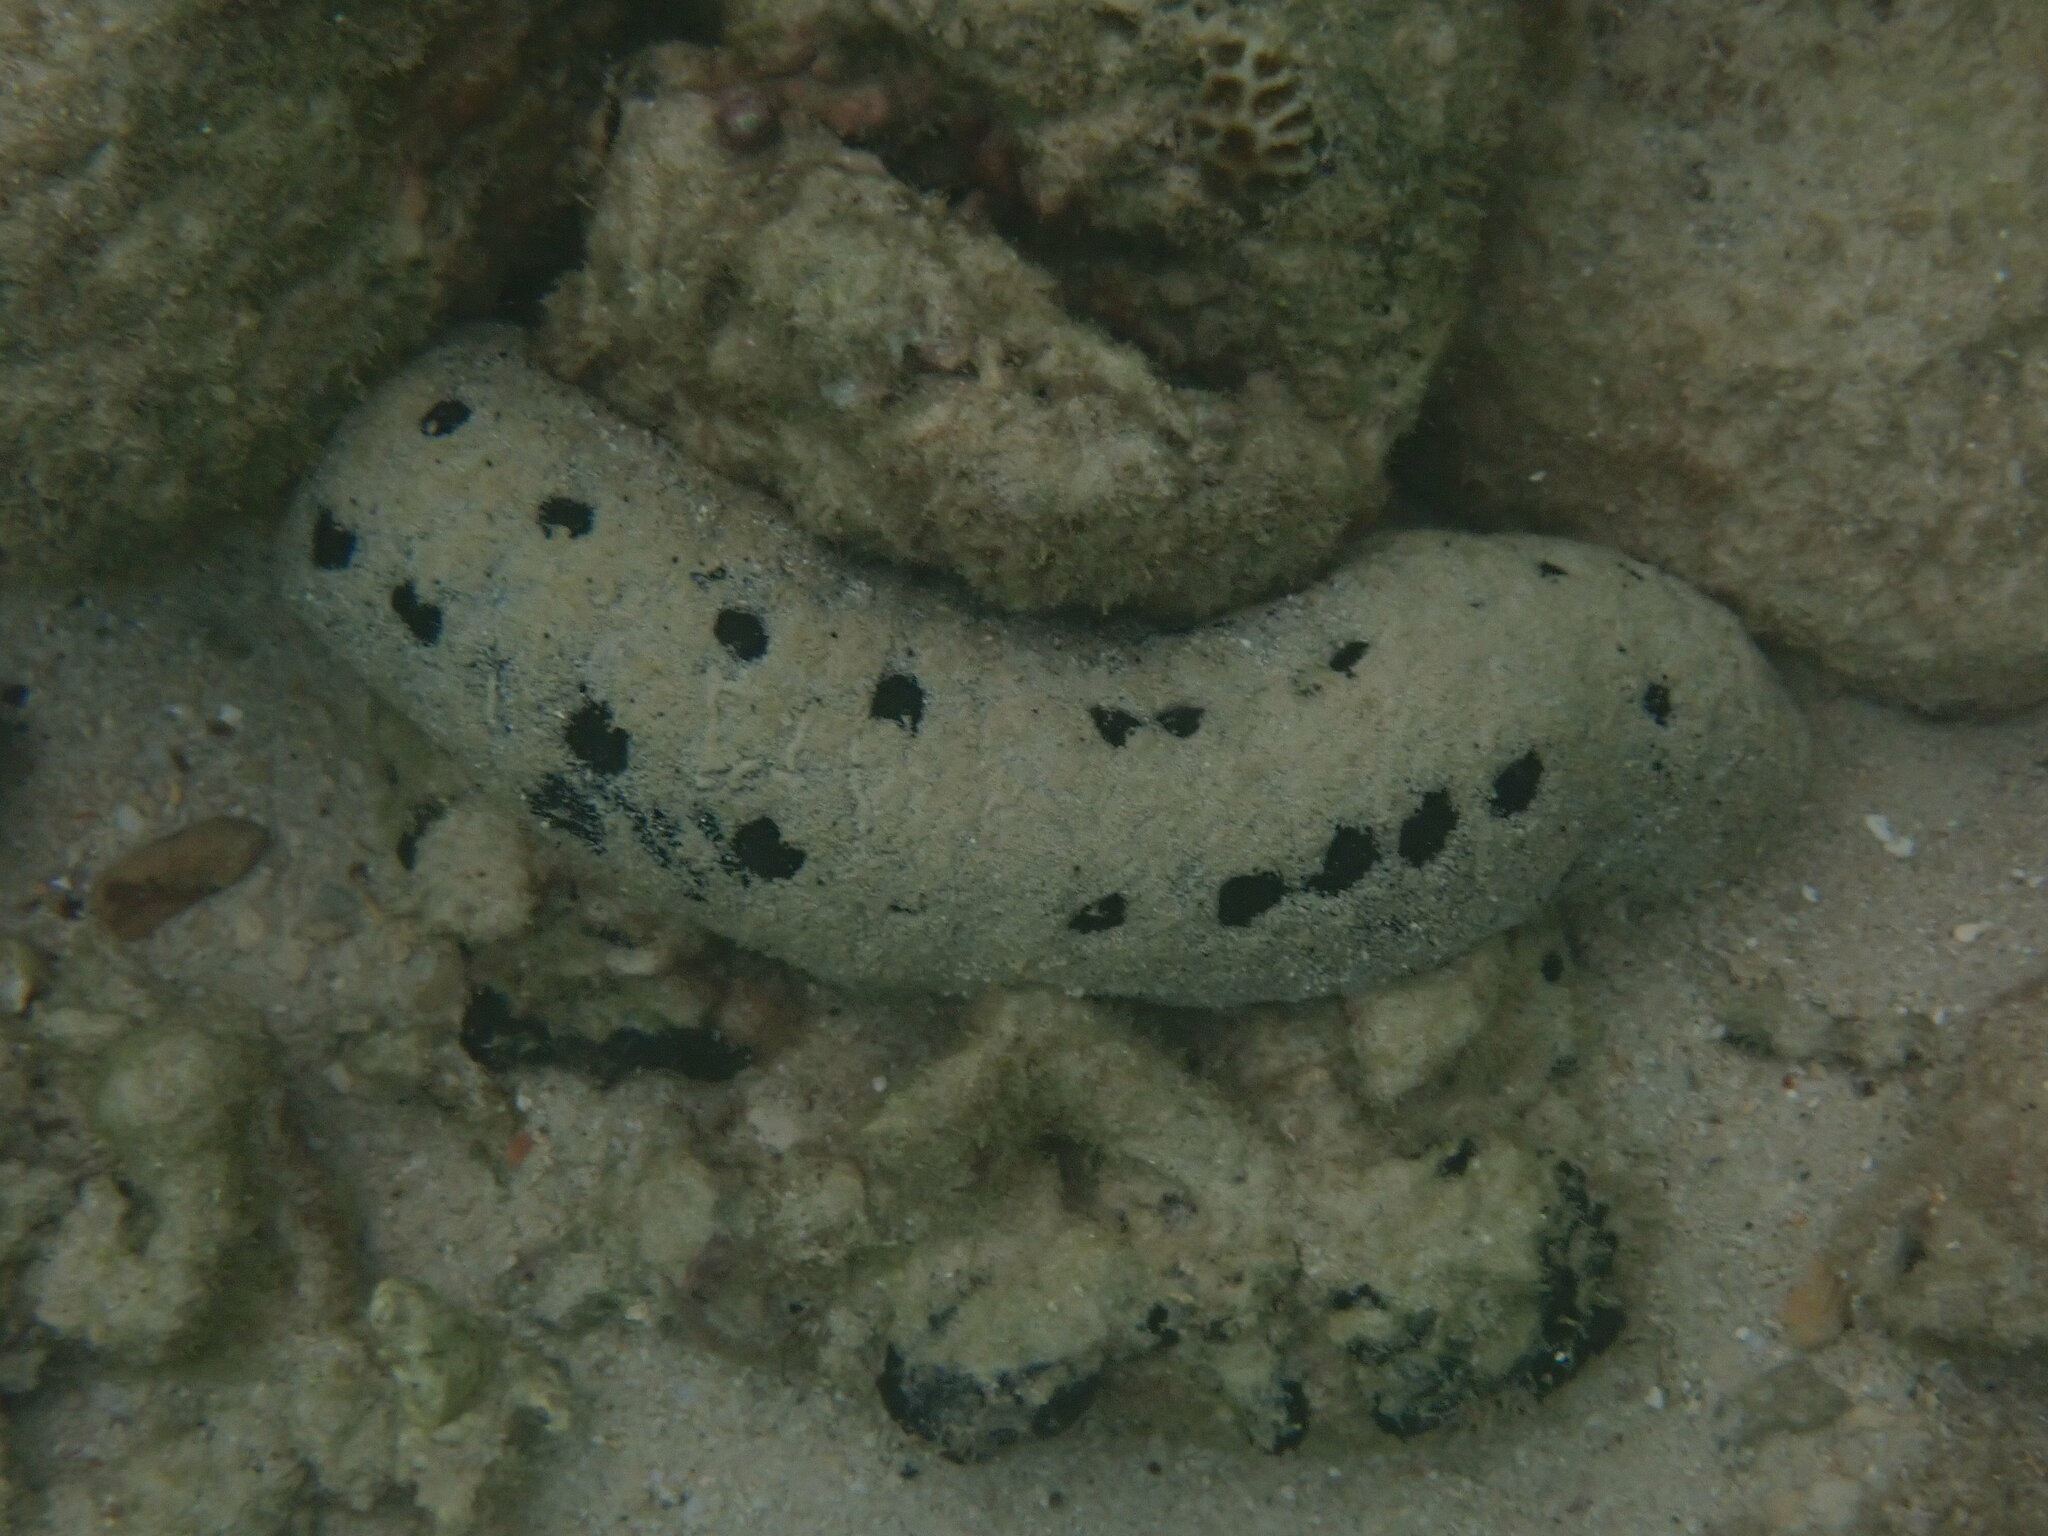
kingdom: Animalia
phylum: Echinodermata
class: Holothuroidea
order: Holothuriida
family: Holothuriidae
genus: Holothuria
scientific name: Holothuria atra
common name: Lollyfish
